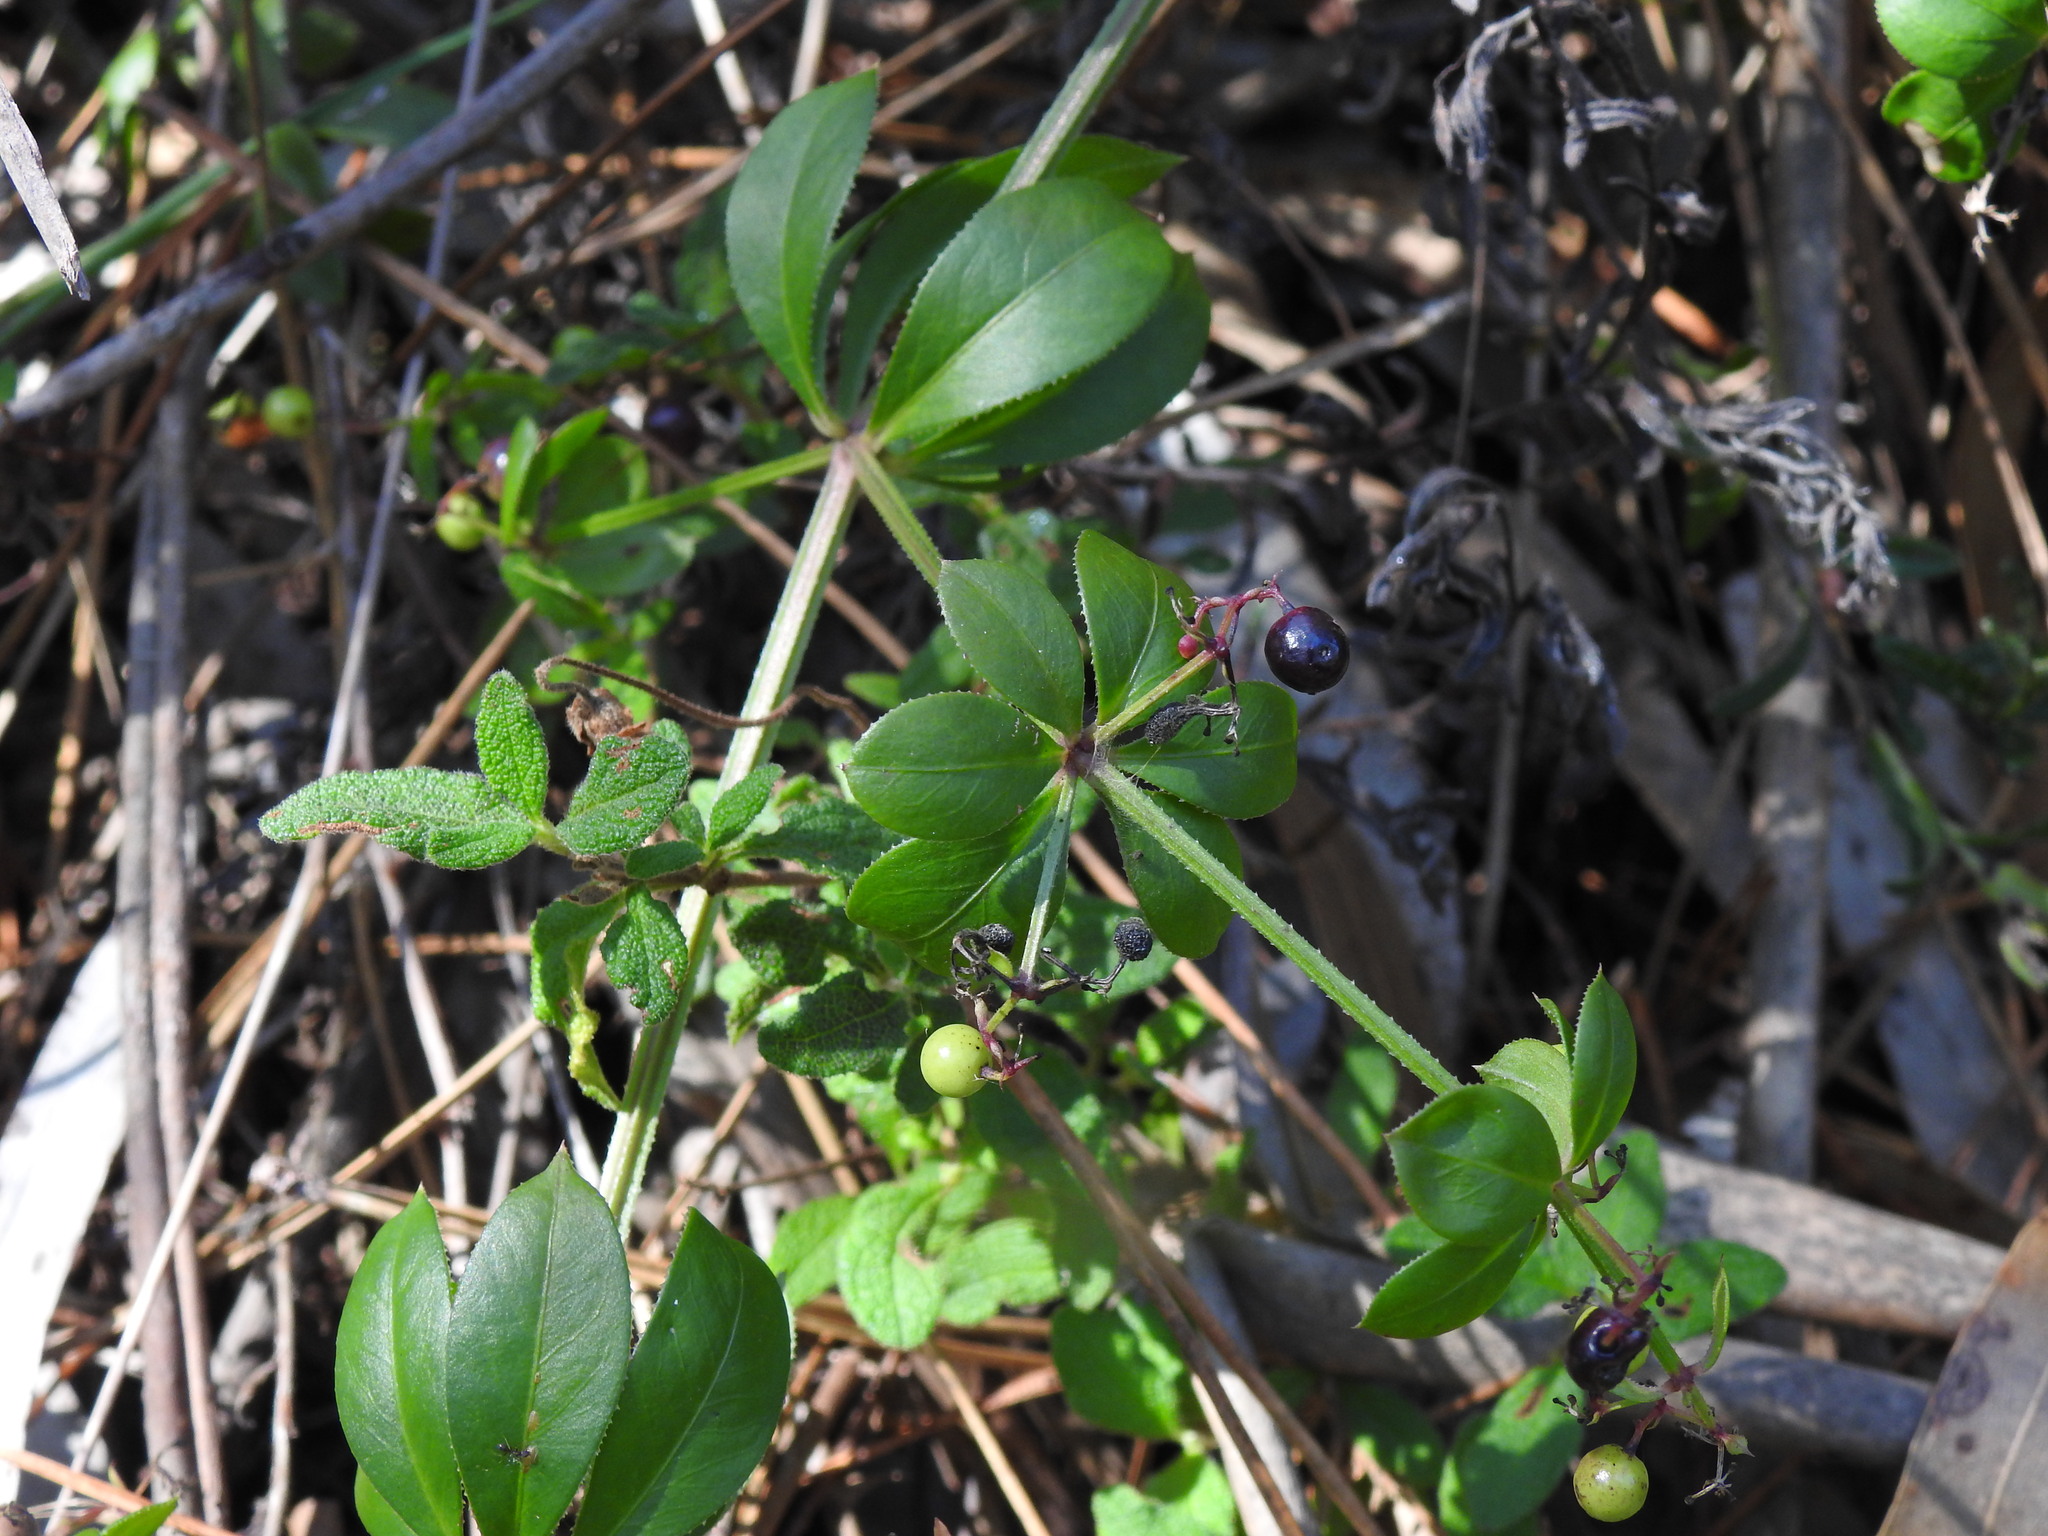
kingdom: Plantae
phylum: Tracheophyta
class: Magnoliopsida
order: Gentianales
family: Rubiaceae
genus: Rubia
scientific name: Rubia peregrina
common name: Wild madder
